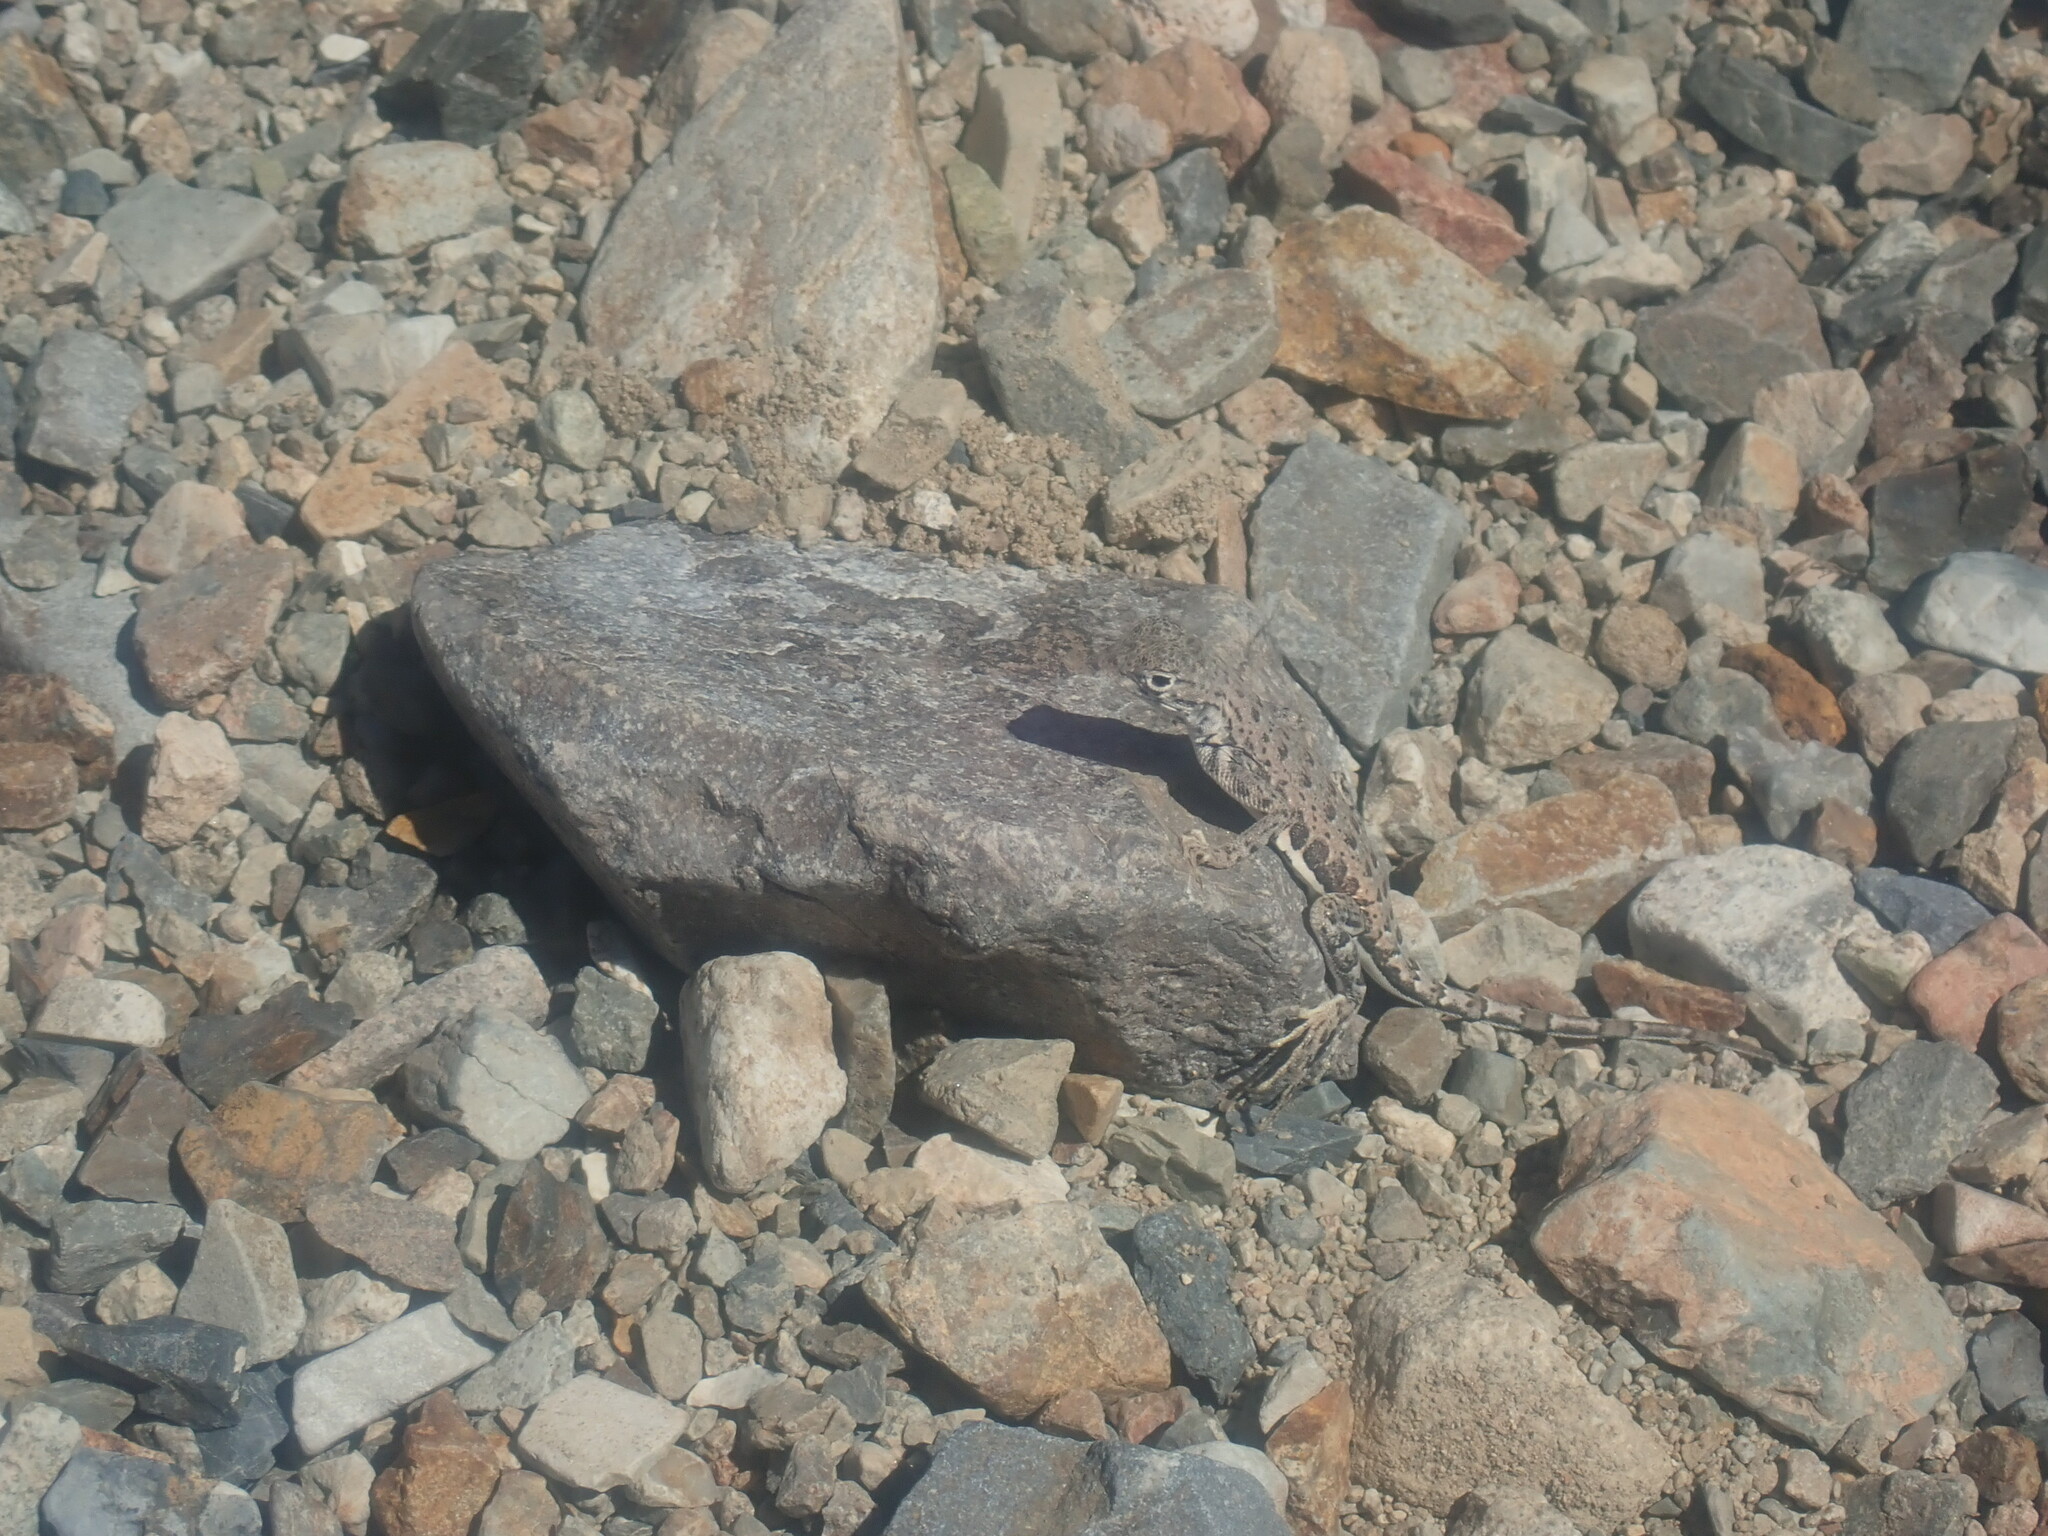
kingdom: Animalia
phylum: Chordata
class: Squamata
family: Phrynosomatidae
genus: Callisaurus
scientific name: Callisaurus draconoides
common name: Zebra-tailed lizard
